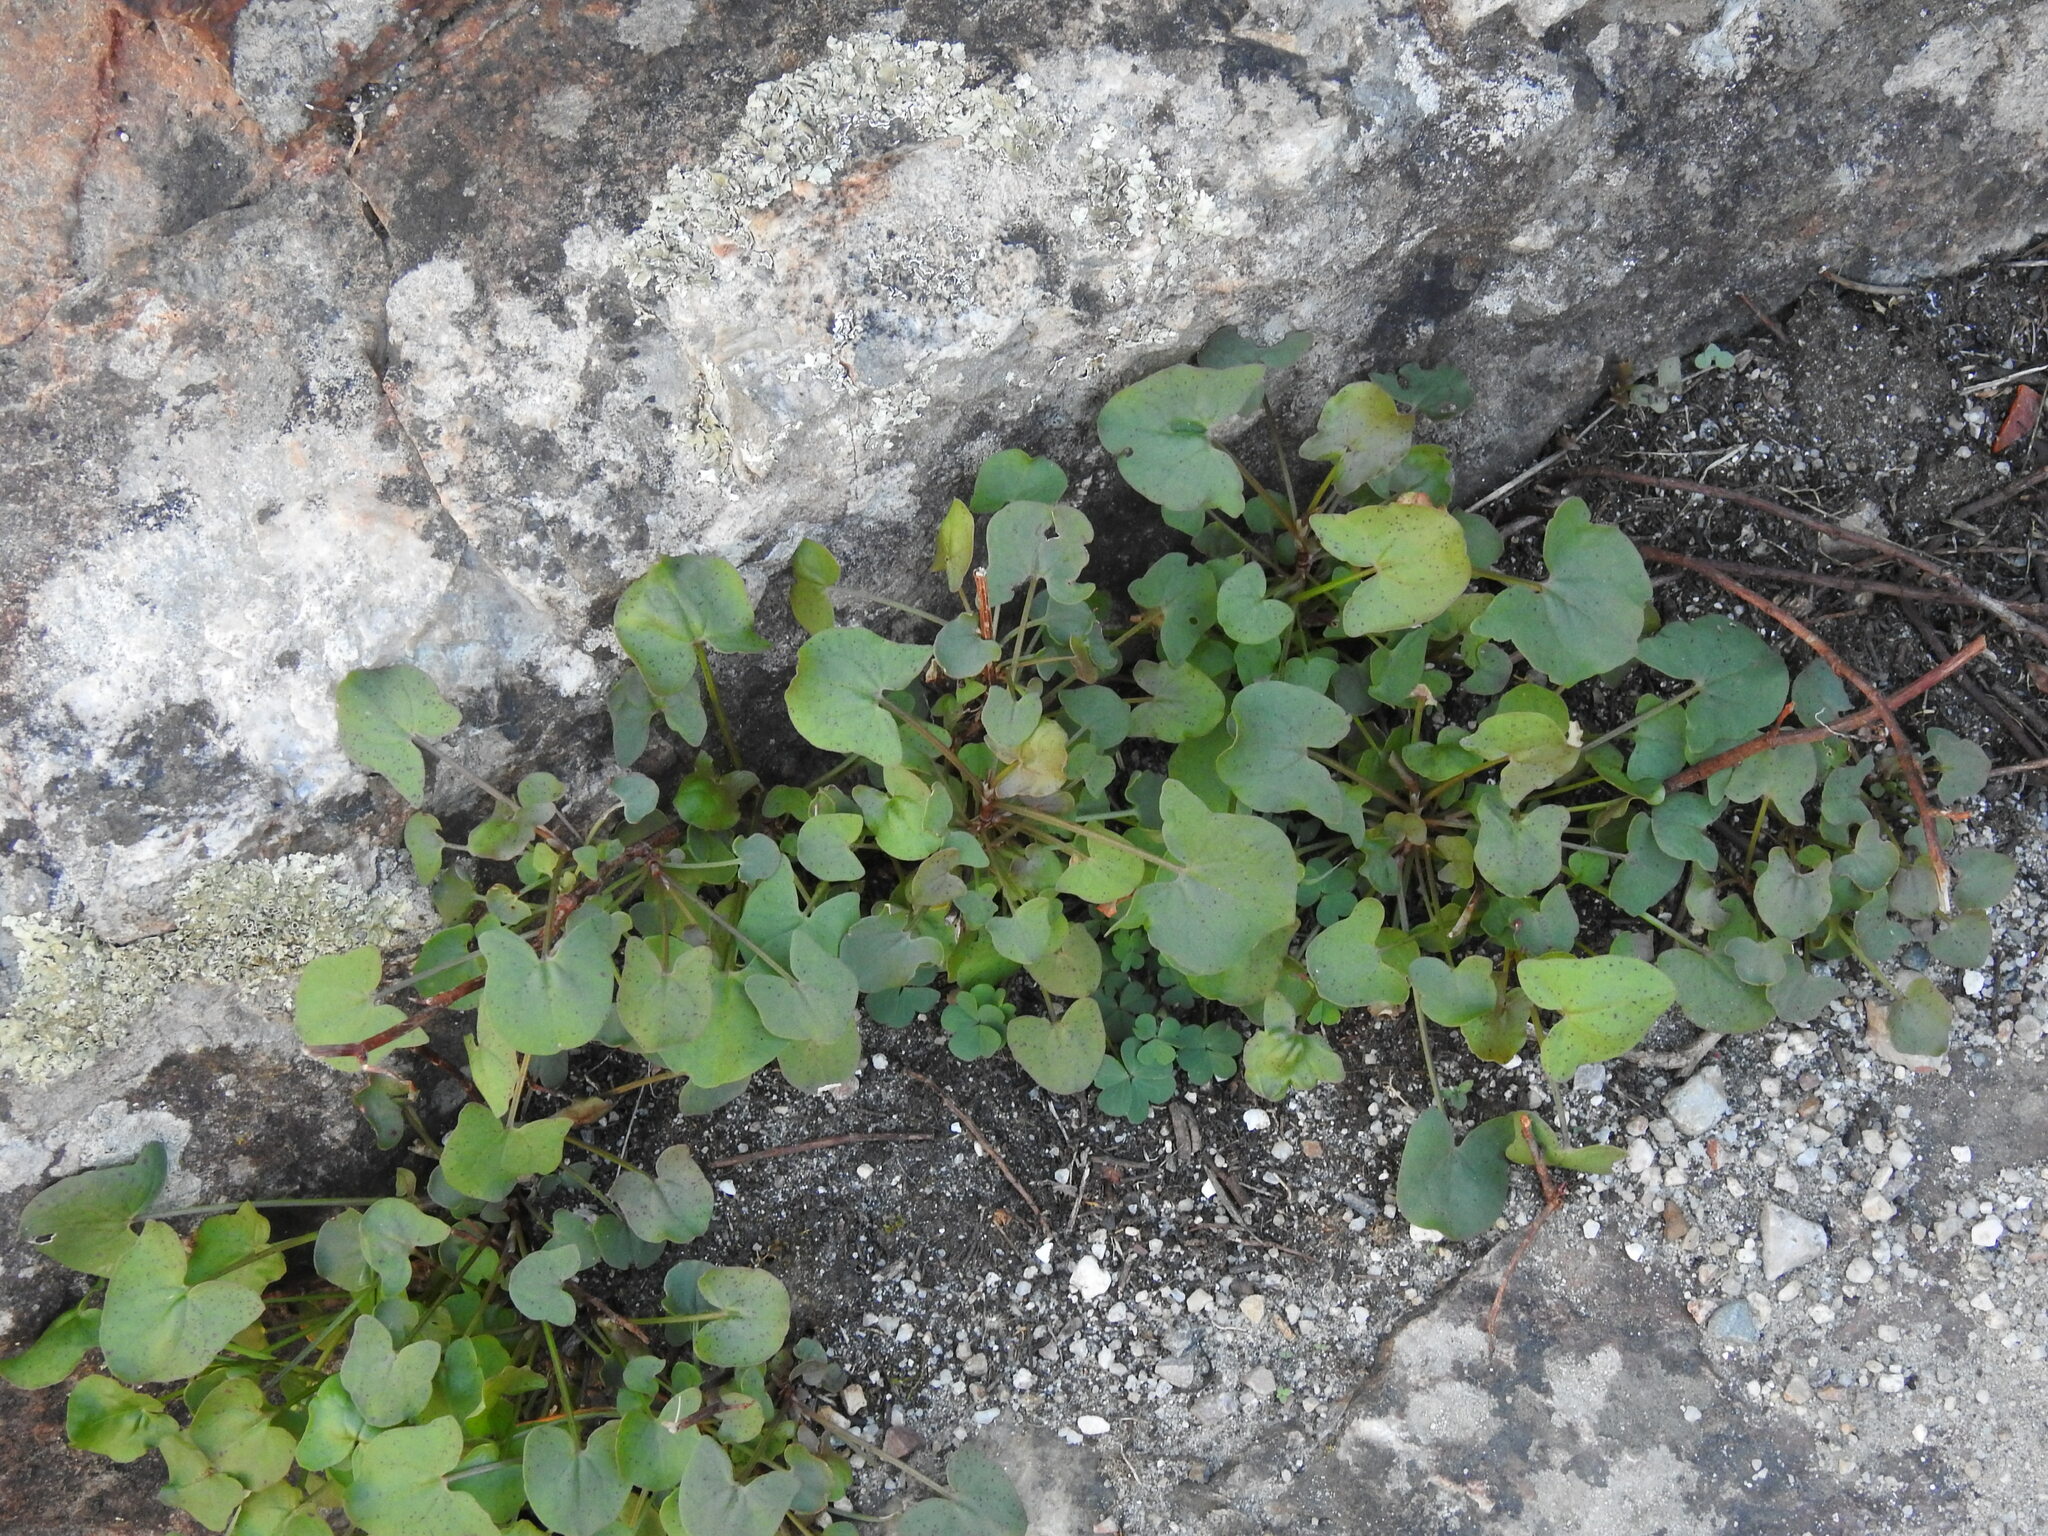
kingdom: Plantae
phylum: Tracheophyta
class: Magnoliopsida
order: Caryophyllales
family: Polygonaceae
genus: Rumex
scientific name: Rumex induratus
